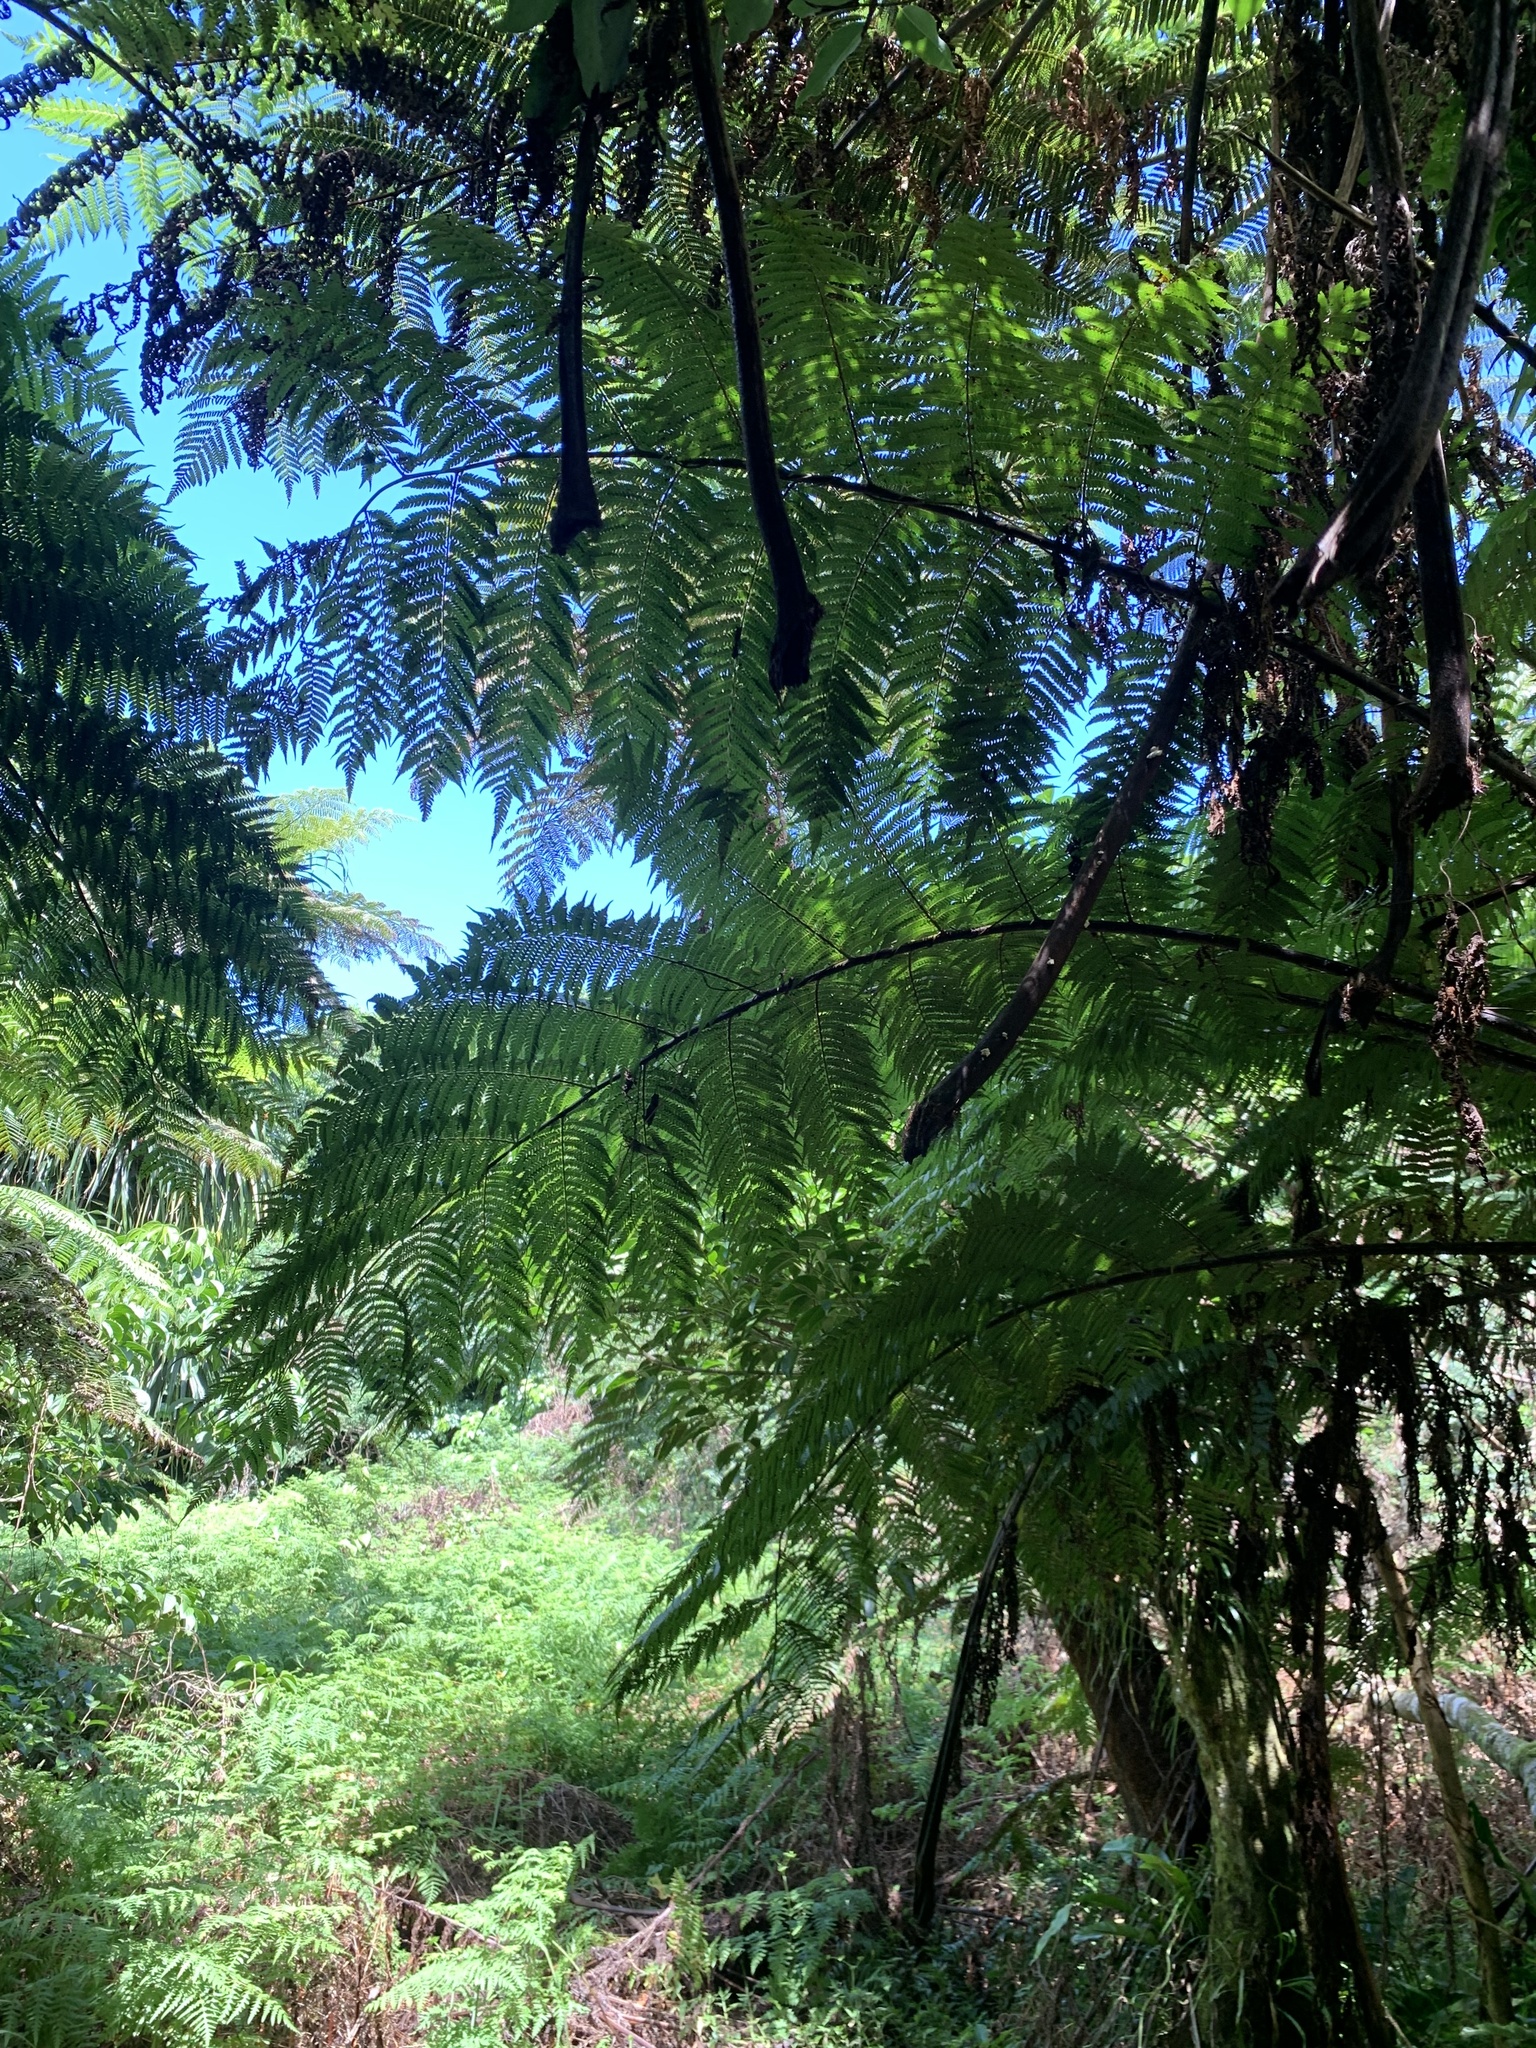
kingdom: Plantae
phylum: Tracheophyta
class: Polypodiopsida
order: Cyatheales
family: Cyatheaceae
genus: Alsophila
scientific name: Alsophila spinulosa
